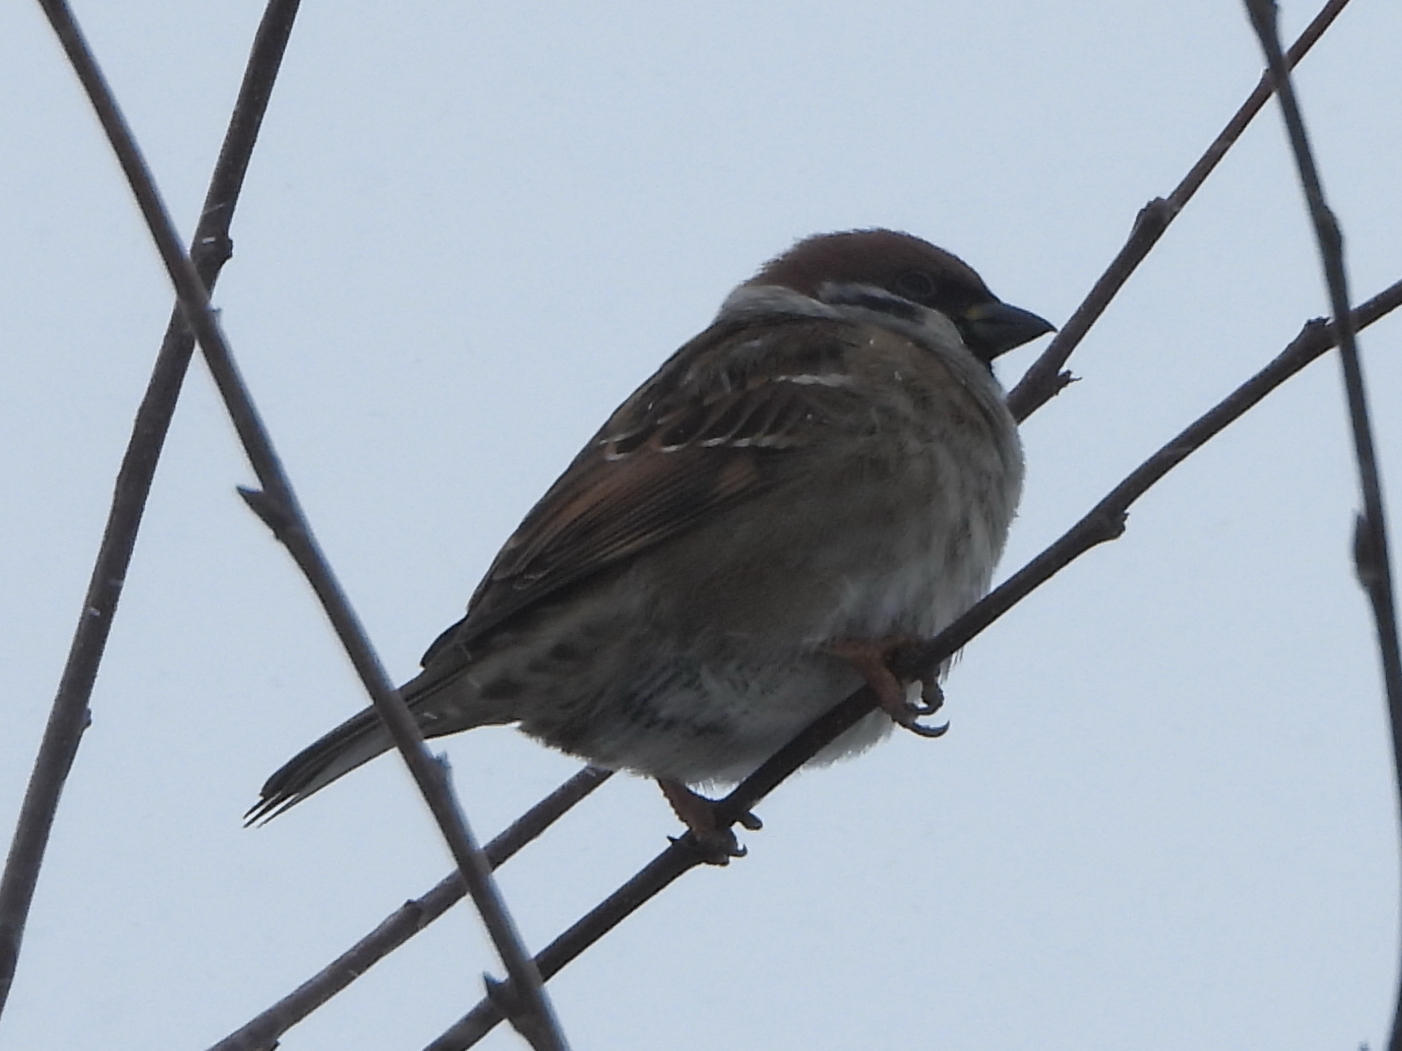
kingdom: Animalia
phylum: Chordata
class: Aves
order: Passeriformes
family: Passeridae
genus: Passer
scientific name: Passer montanus
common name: Eurasian tree sparrow
